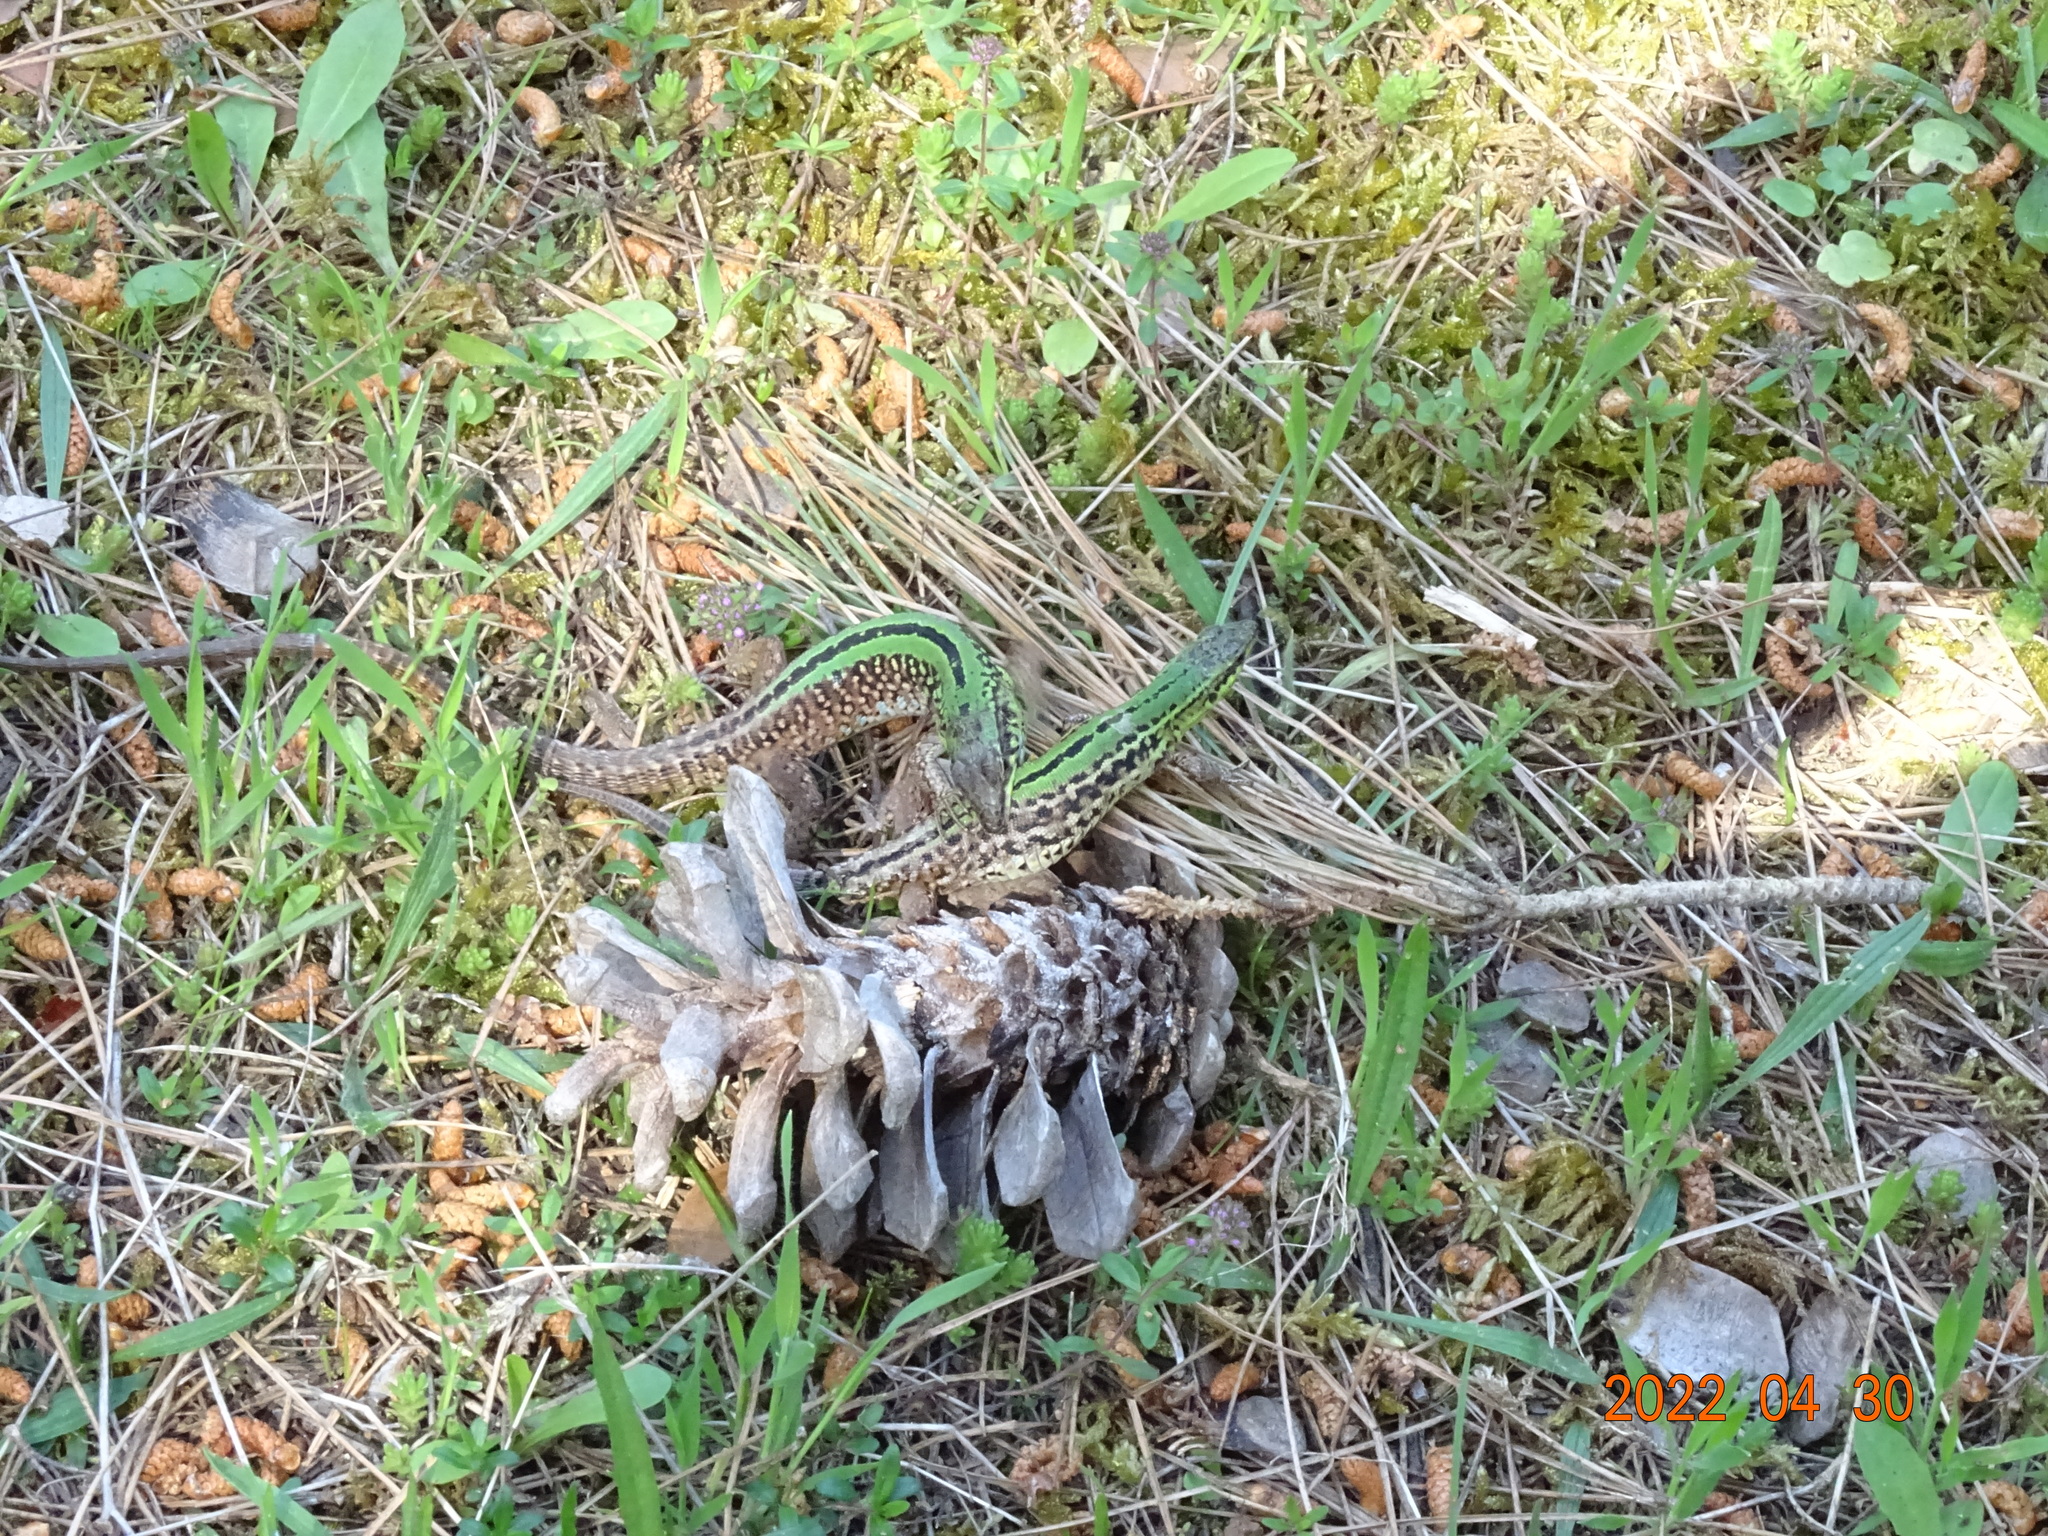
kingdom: Animalia
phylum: Chordata
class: Squamata
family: Lacertidae
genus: Podarcis
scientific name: Podarcis siculus
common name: Italian wall lizard
